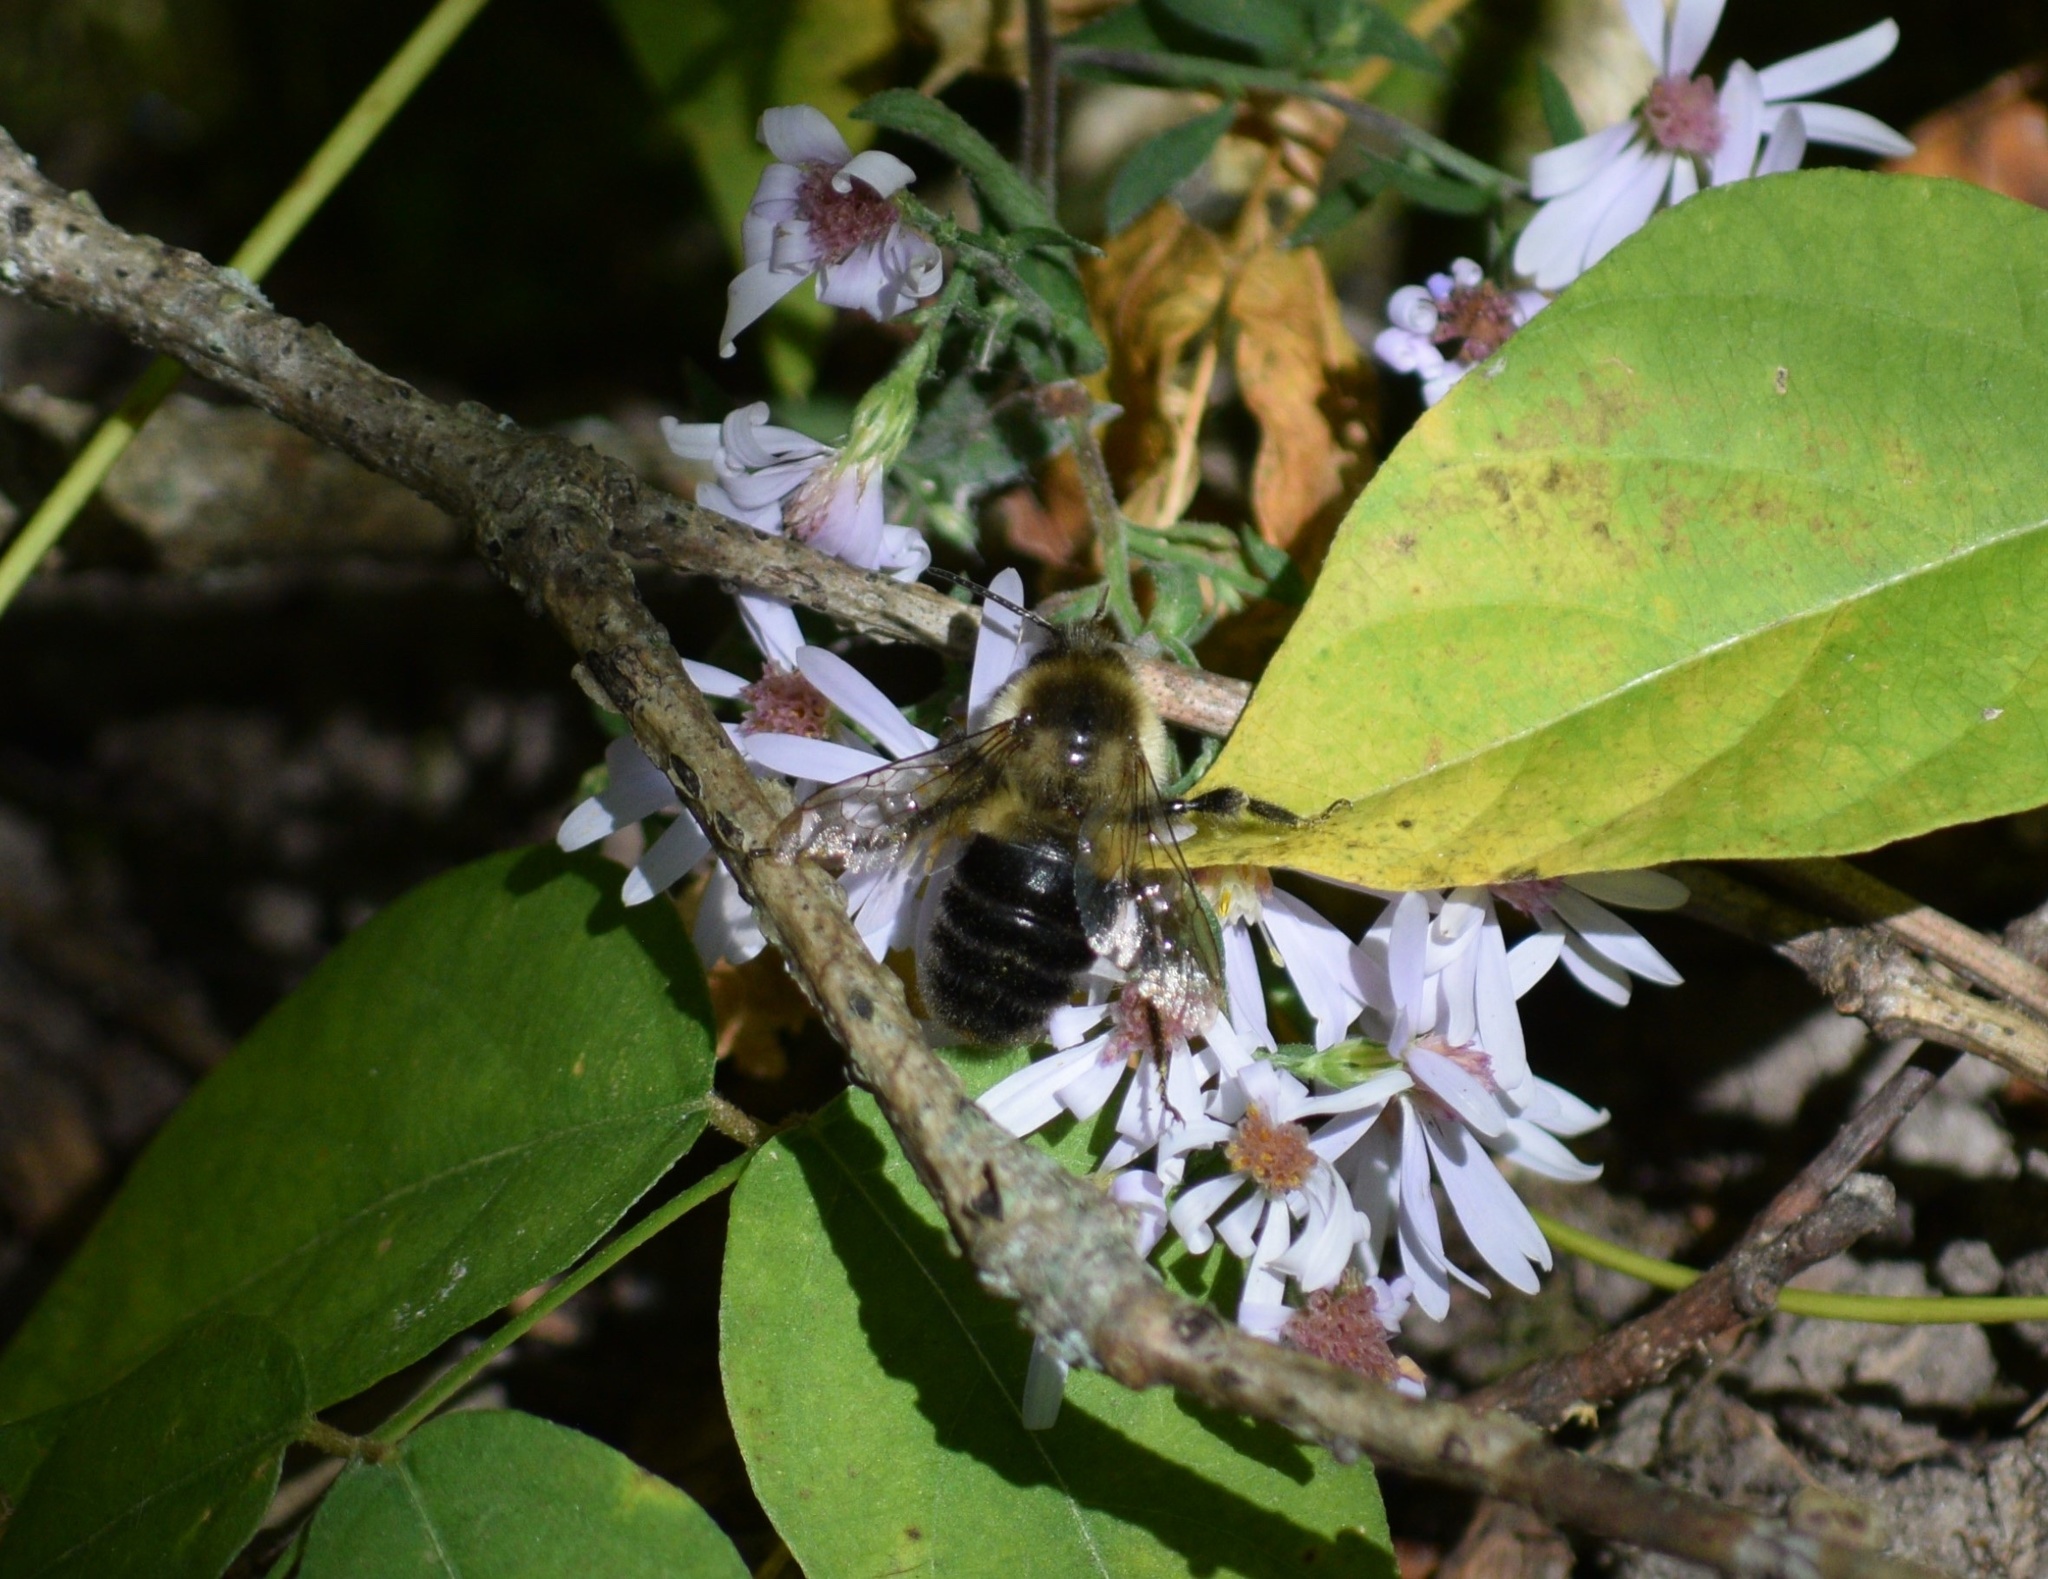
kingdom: Animalia
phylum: Arthropoda
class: Insecta
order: Hymenoptera
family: Apidae
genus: Bombus
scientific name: Bombus impatiens
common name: Common eastern bumble bee
